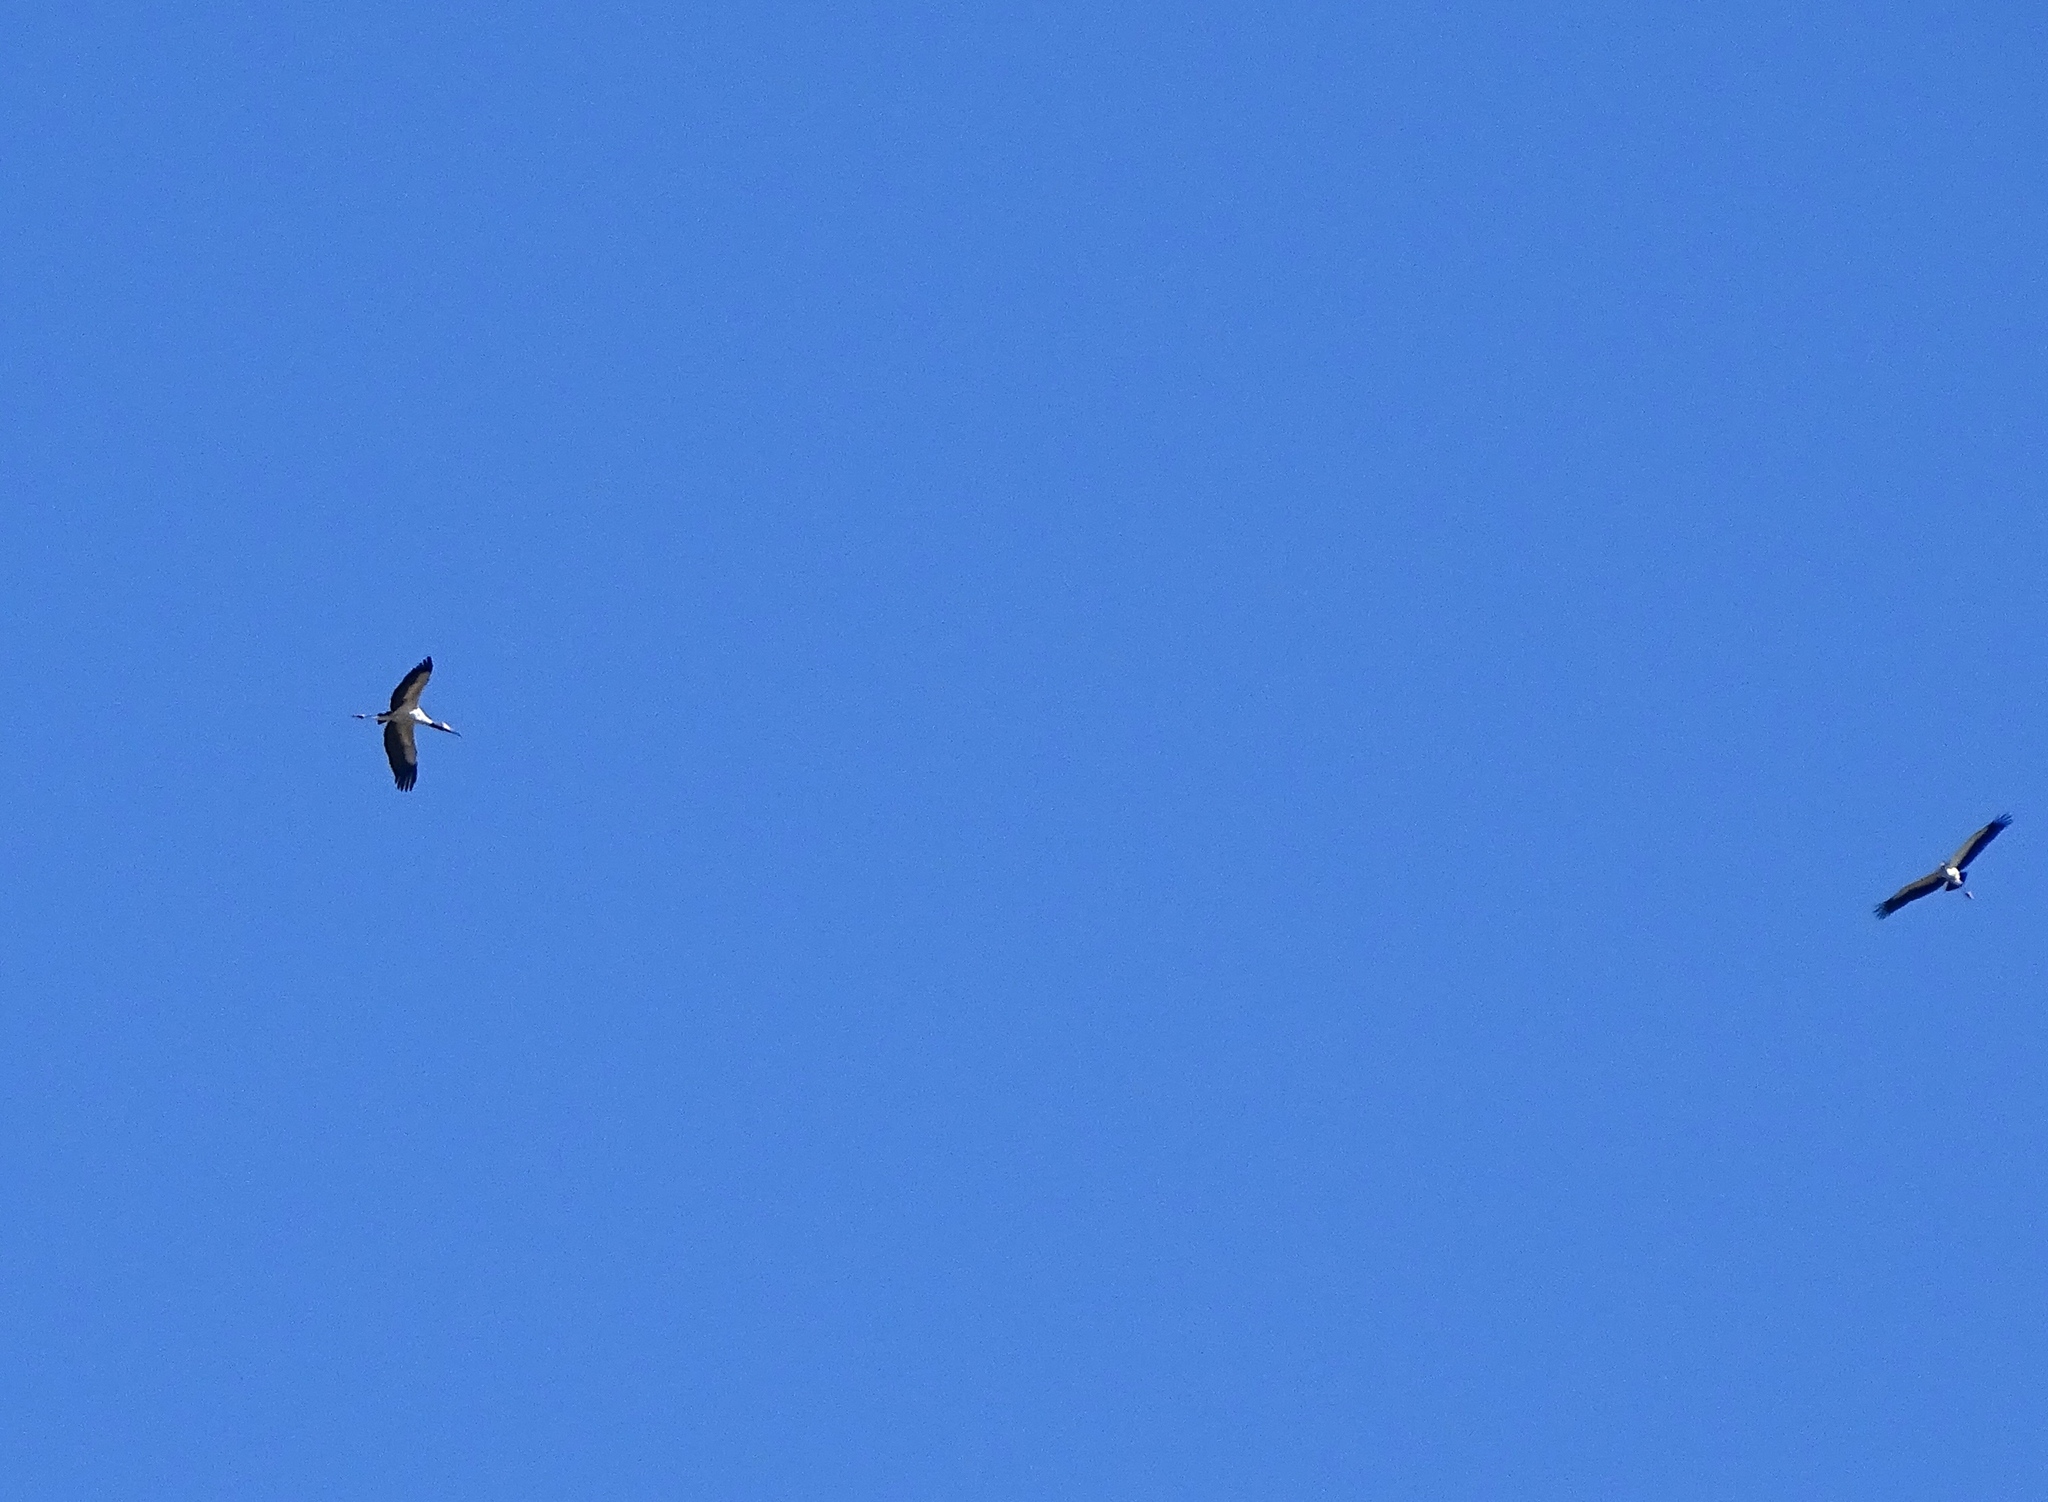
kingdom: Animalia
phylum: Chordata
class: Aves
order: Ciconiiformes
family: Ciconiidae
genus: Mycteria
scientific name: Mycteria americana
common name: Wood stork
